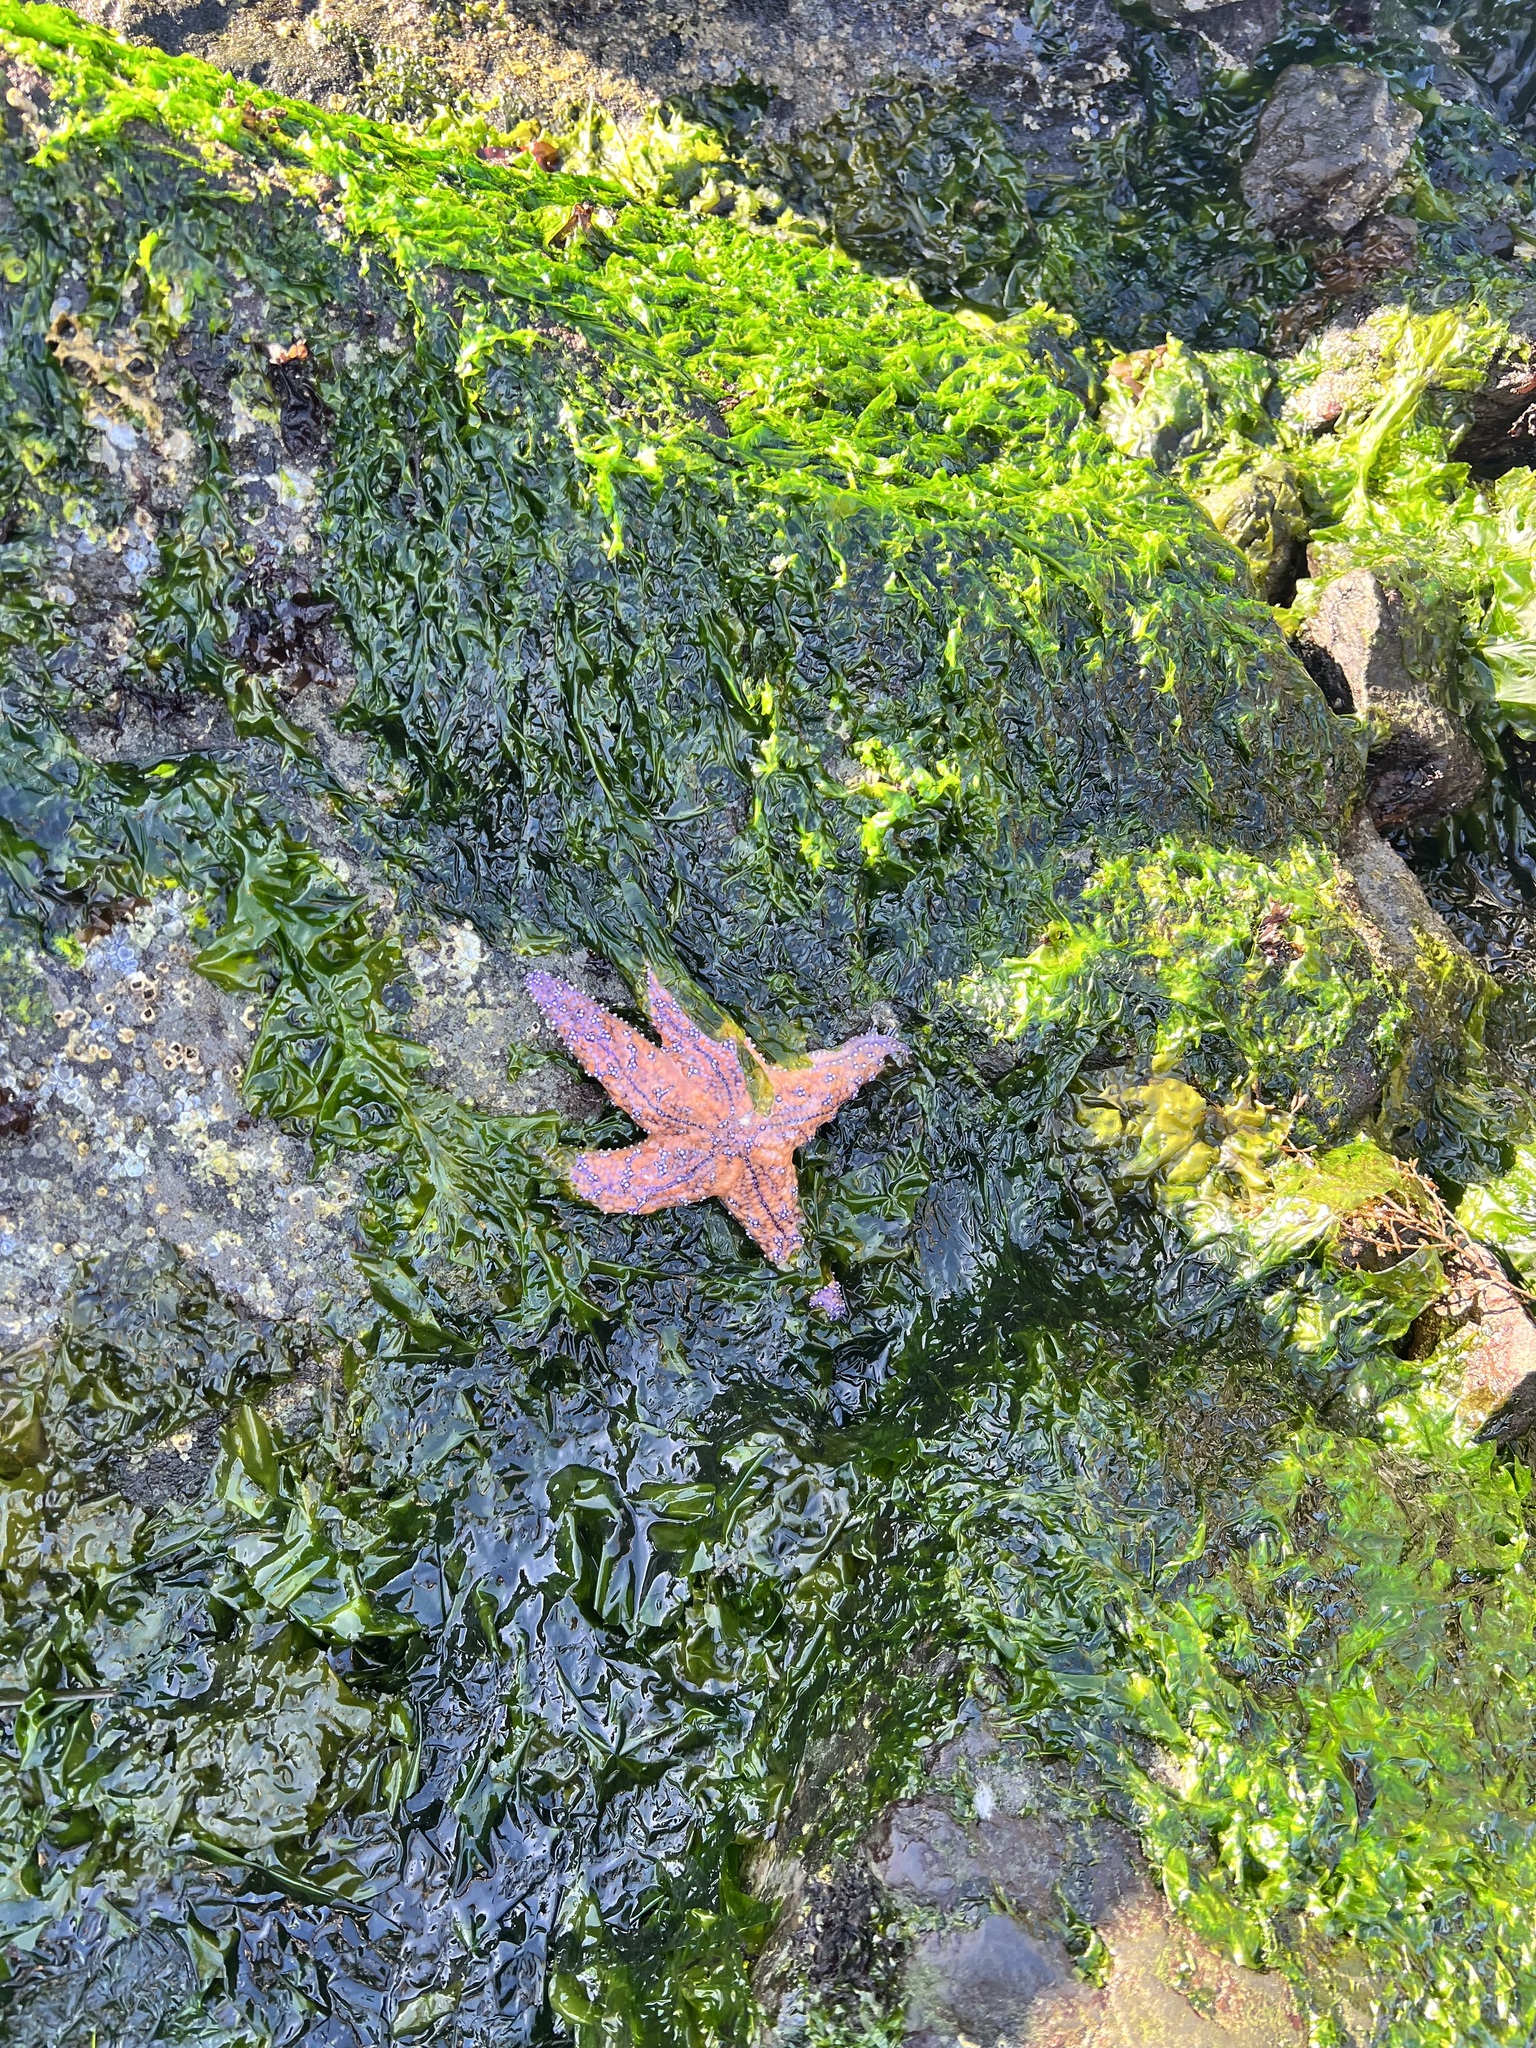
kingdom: Animalia
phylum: Echinodermata
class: Asteroidea
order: Forcipulatida
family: Asteriidae
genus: Pisaster
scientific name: Pisaster ochraceus
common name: Ochre stars
